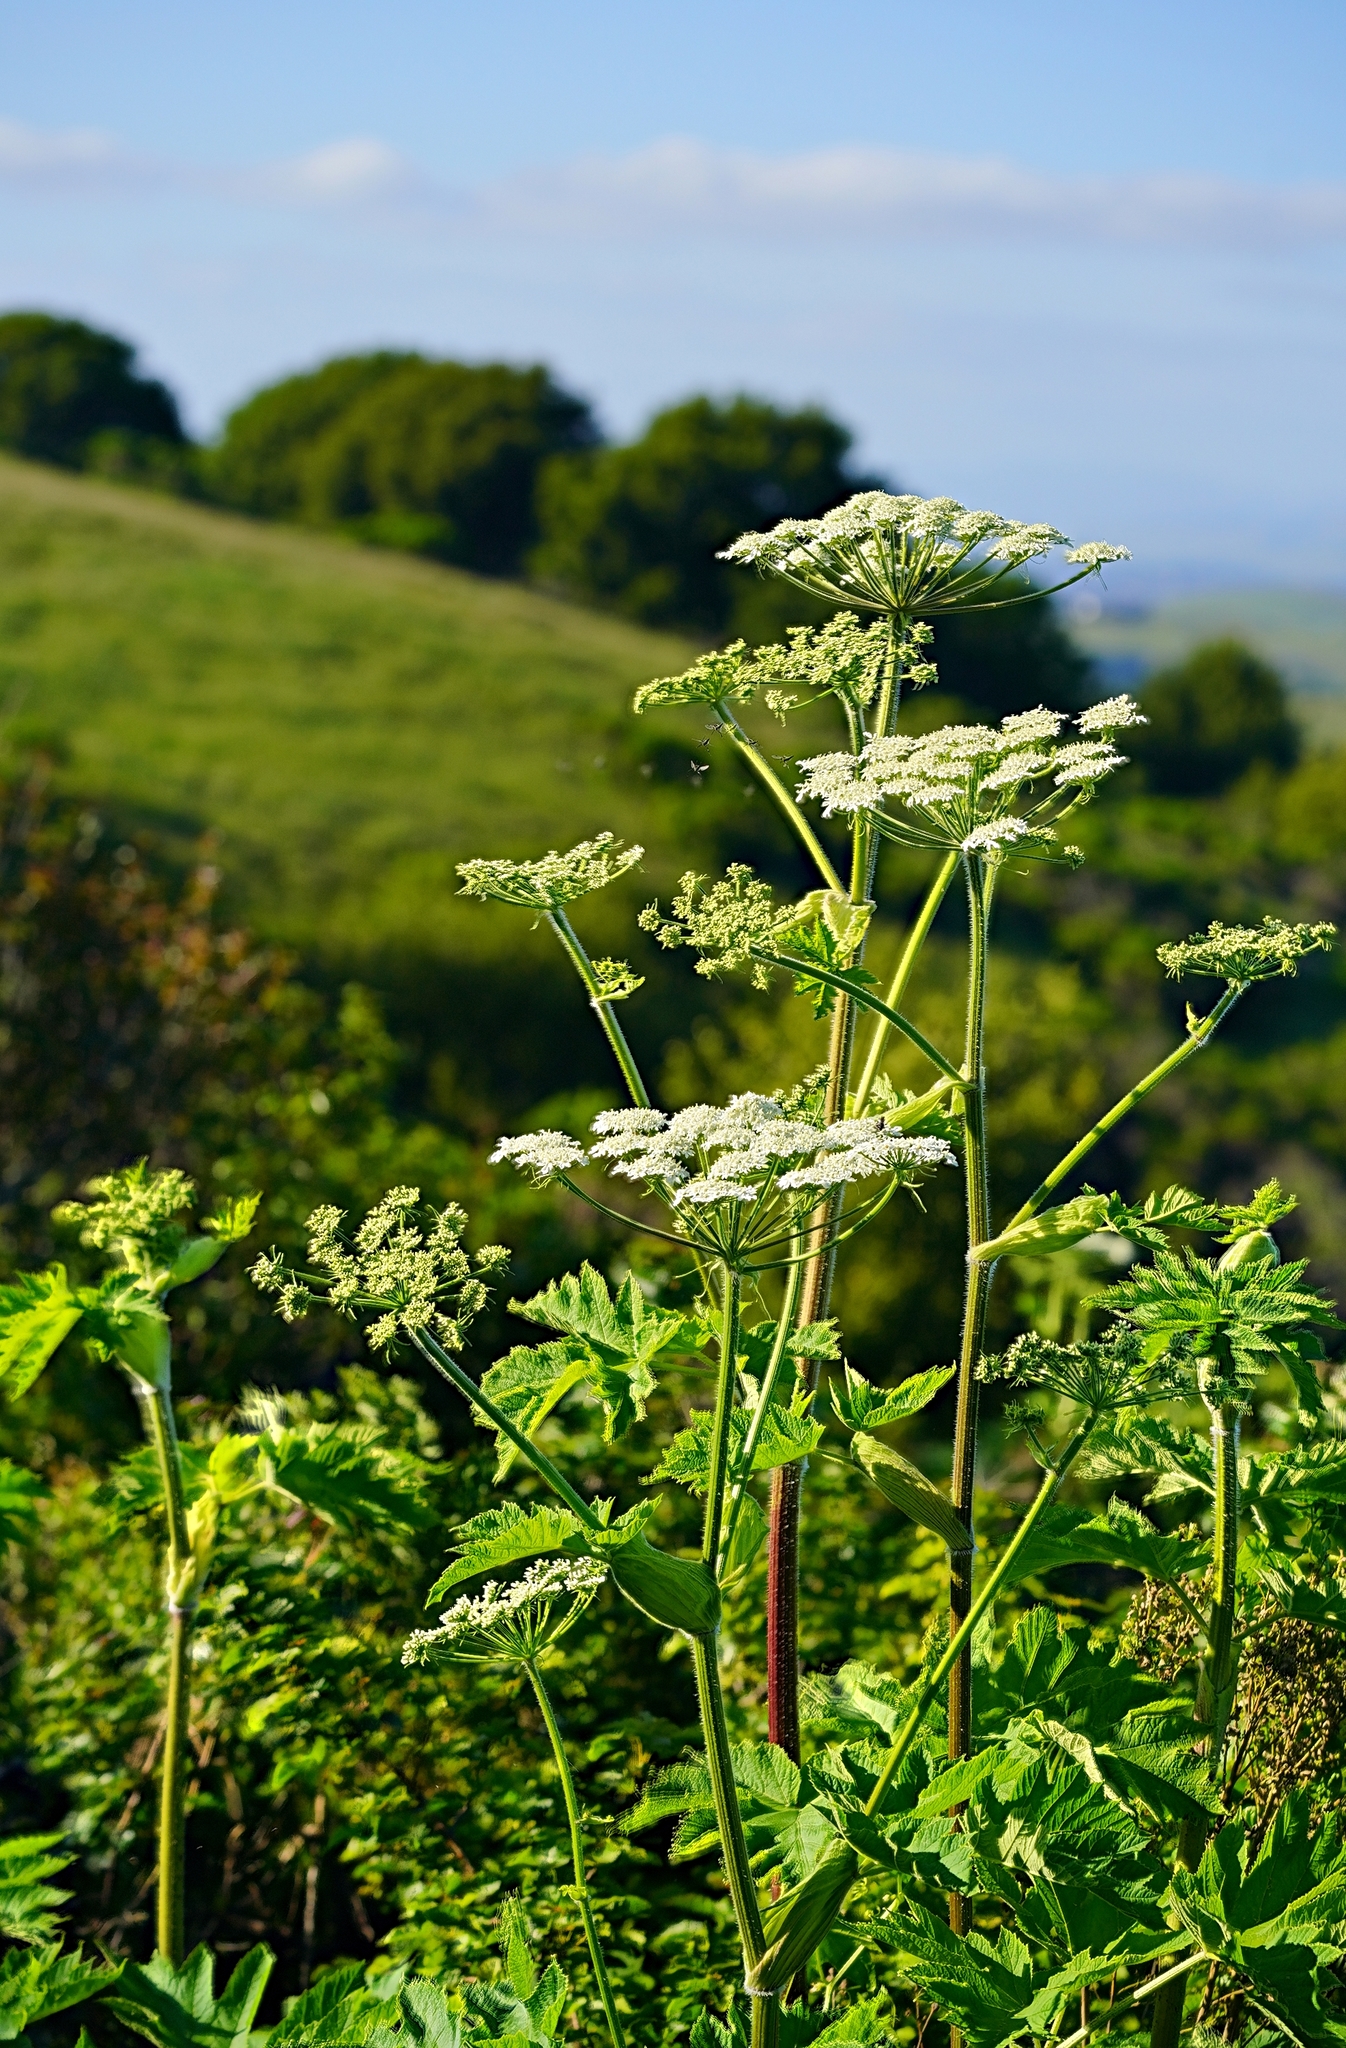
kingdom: Plantae
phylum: Tracheophyta
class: Magnoliopsida
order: Apiales
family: Apiaceae
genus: Heracleum
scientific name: Heracleum maximum
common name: American cow parsnip
